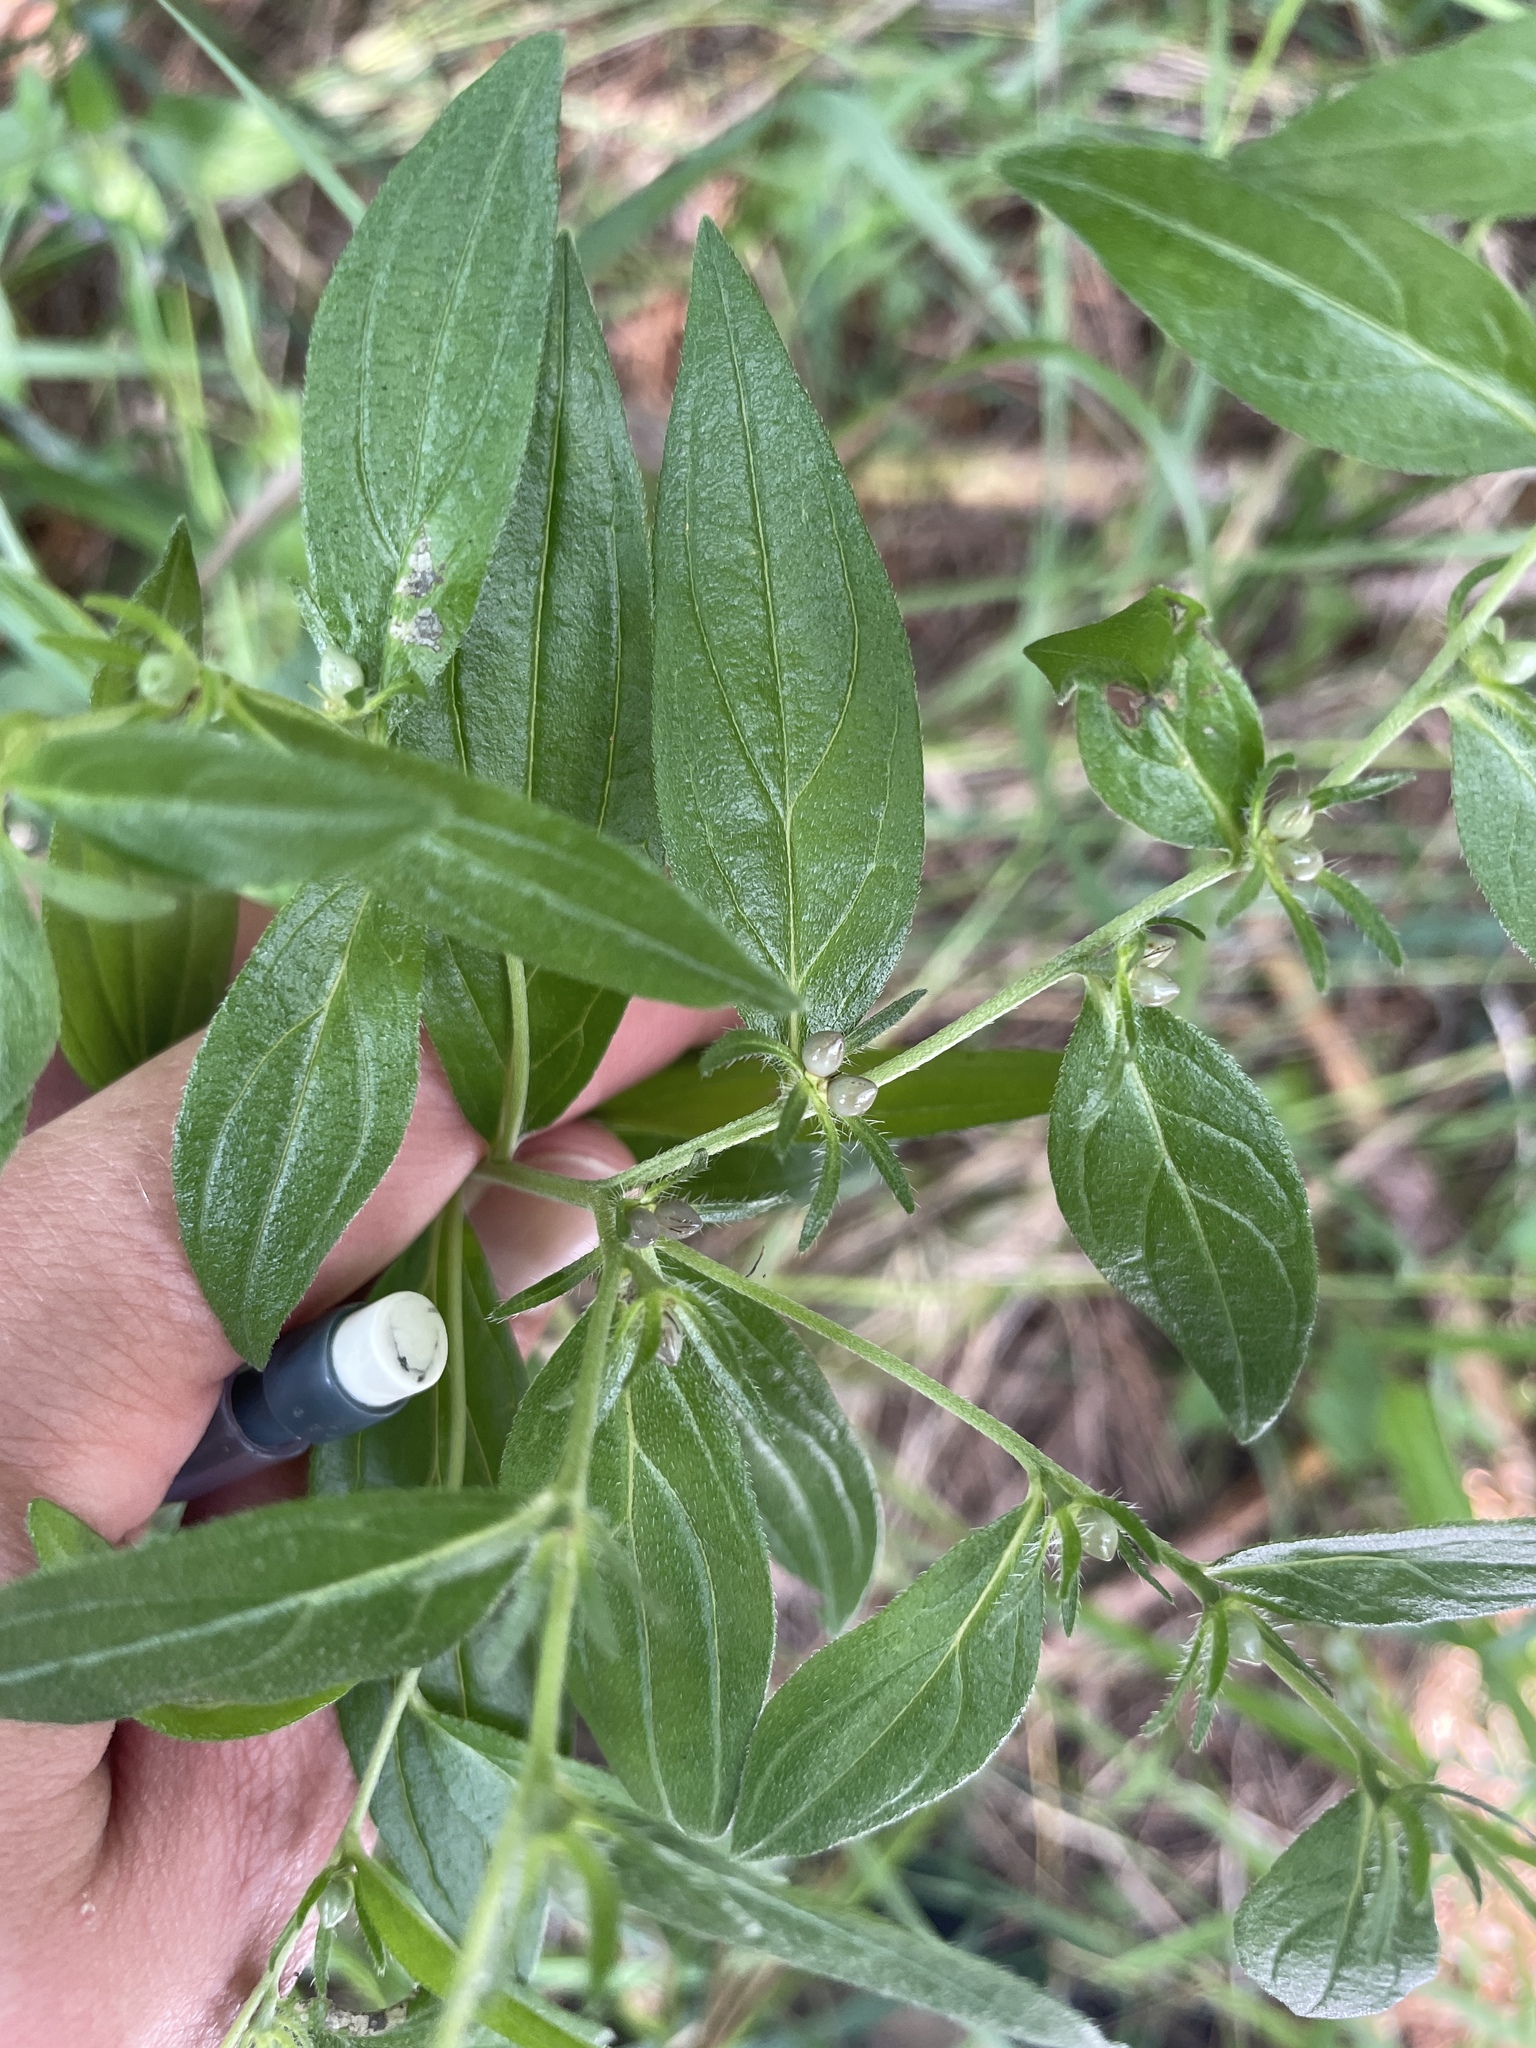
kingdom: Plantae
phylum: Tracheophyta
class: Magnoliopsida
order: Boraginales
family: Boraginaceae
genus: Lithospermum
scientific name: Lithospermum officinale
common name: Common gromwell
